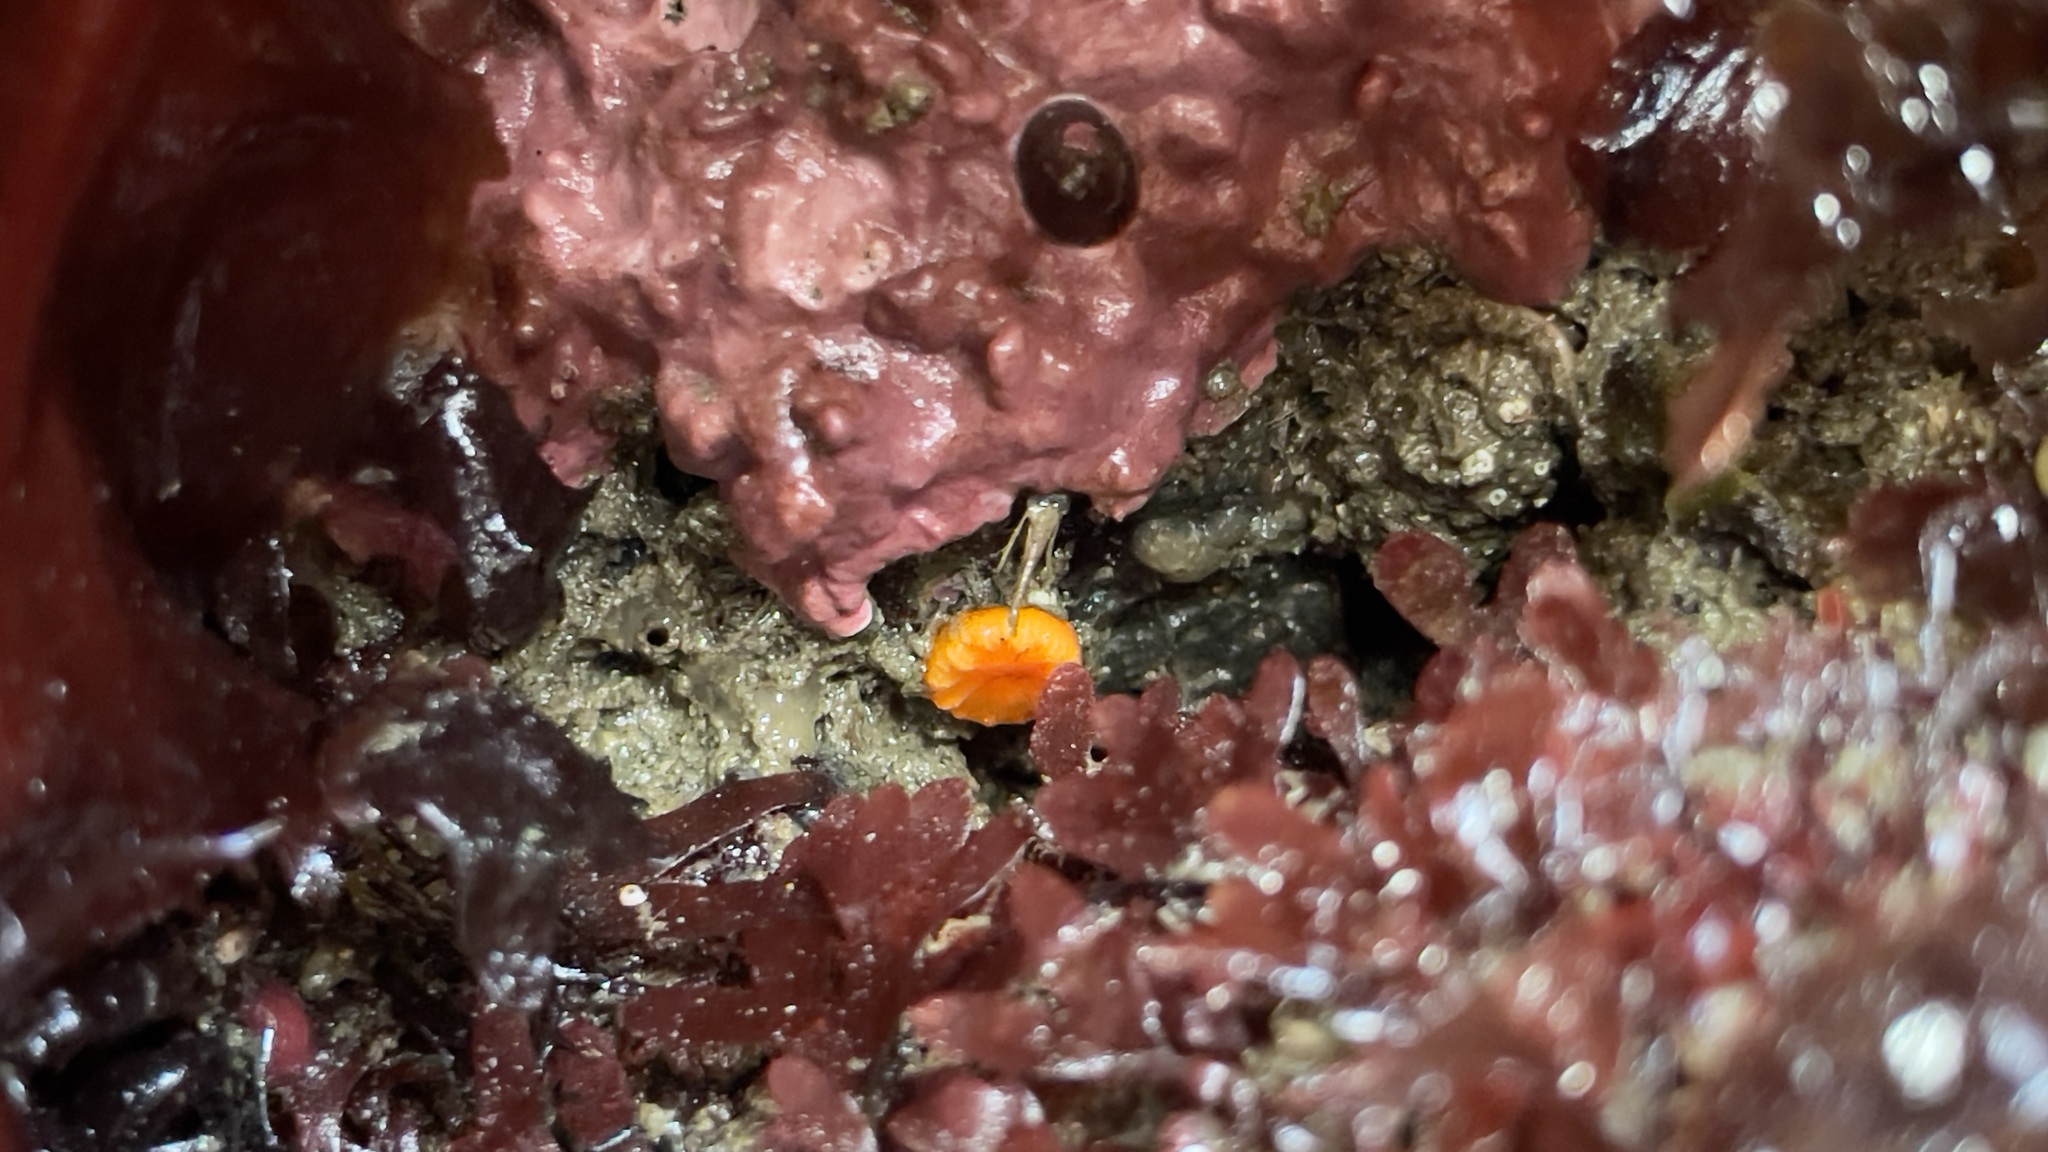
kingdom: Animalia
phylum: Cnidaria
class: Anthozoa
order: Scleractinia
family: Dendrophylliidae
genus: Balanophyllia
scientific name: Balanophyllia elegans
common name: Orange stony coral
